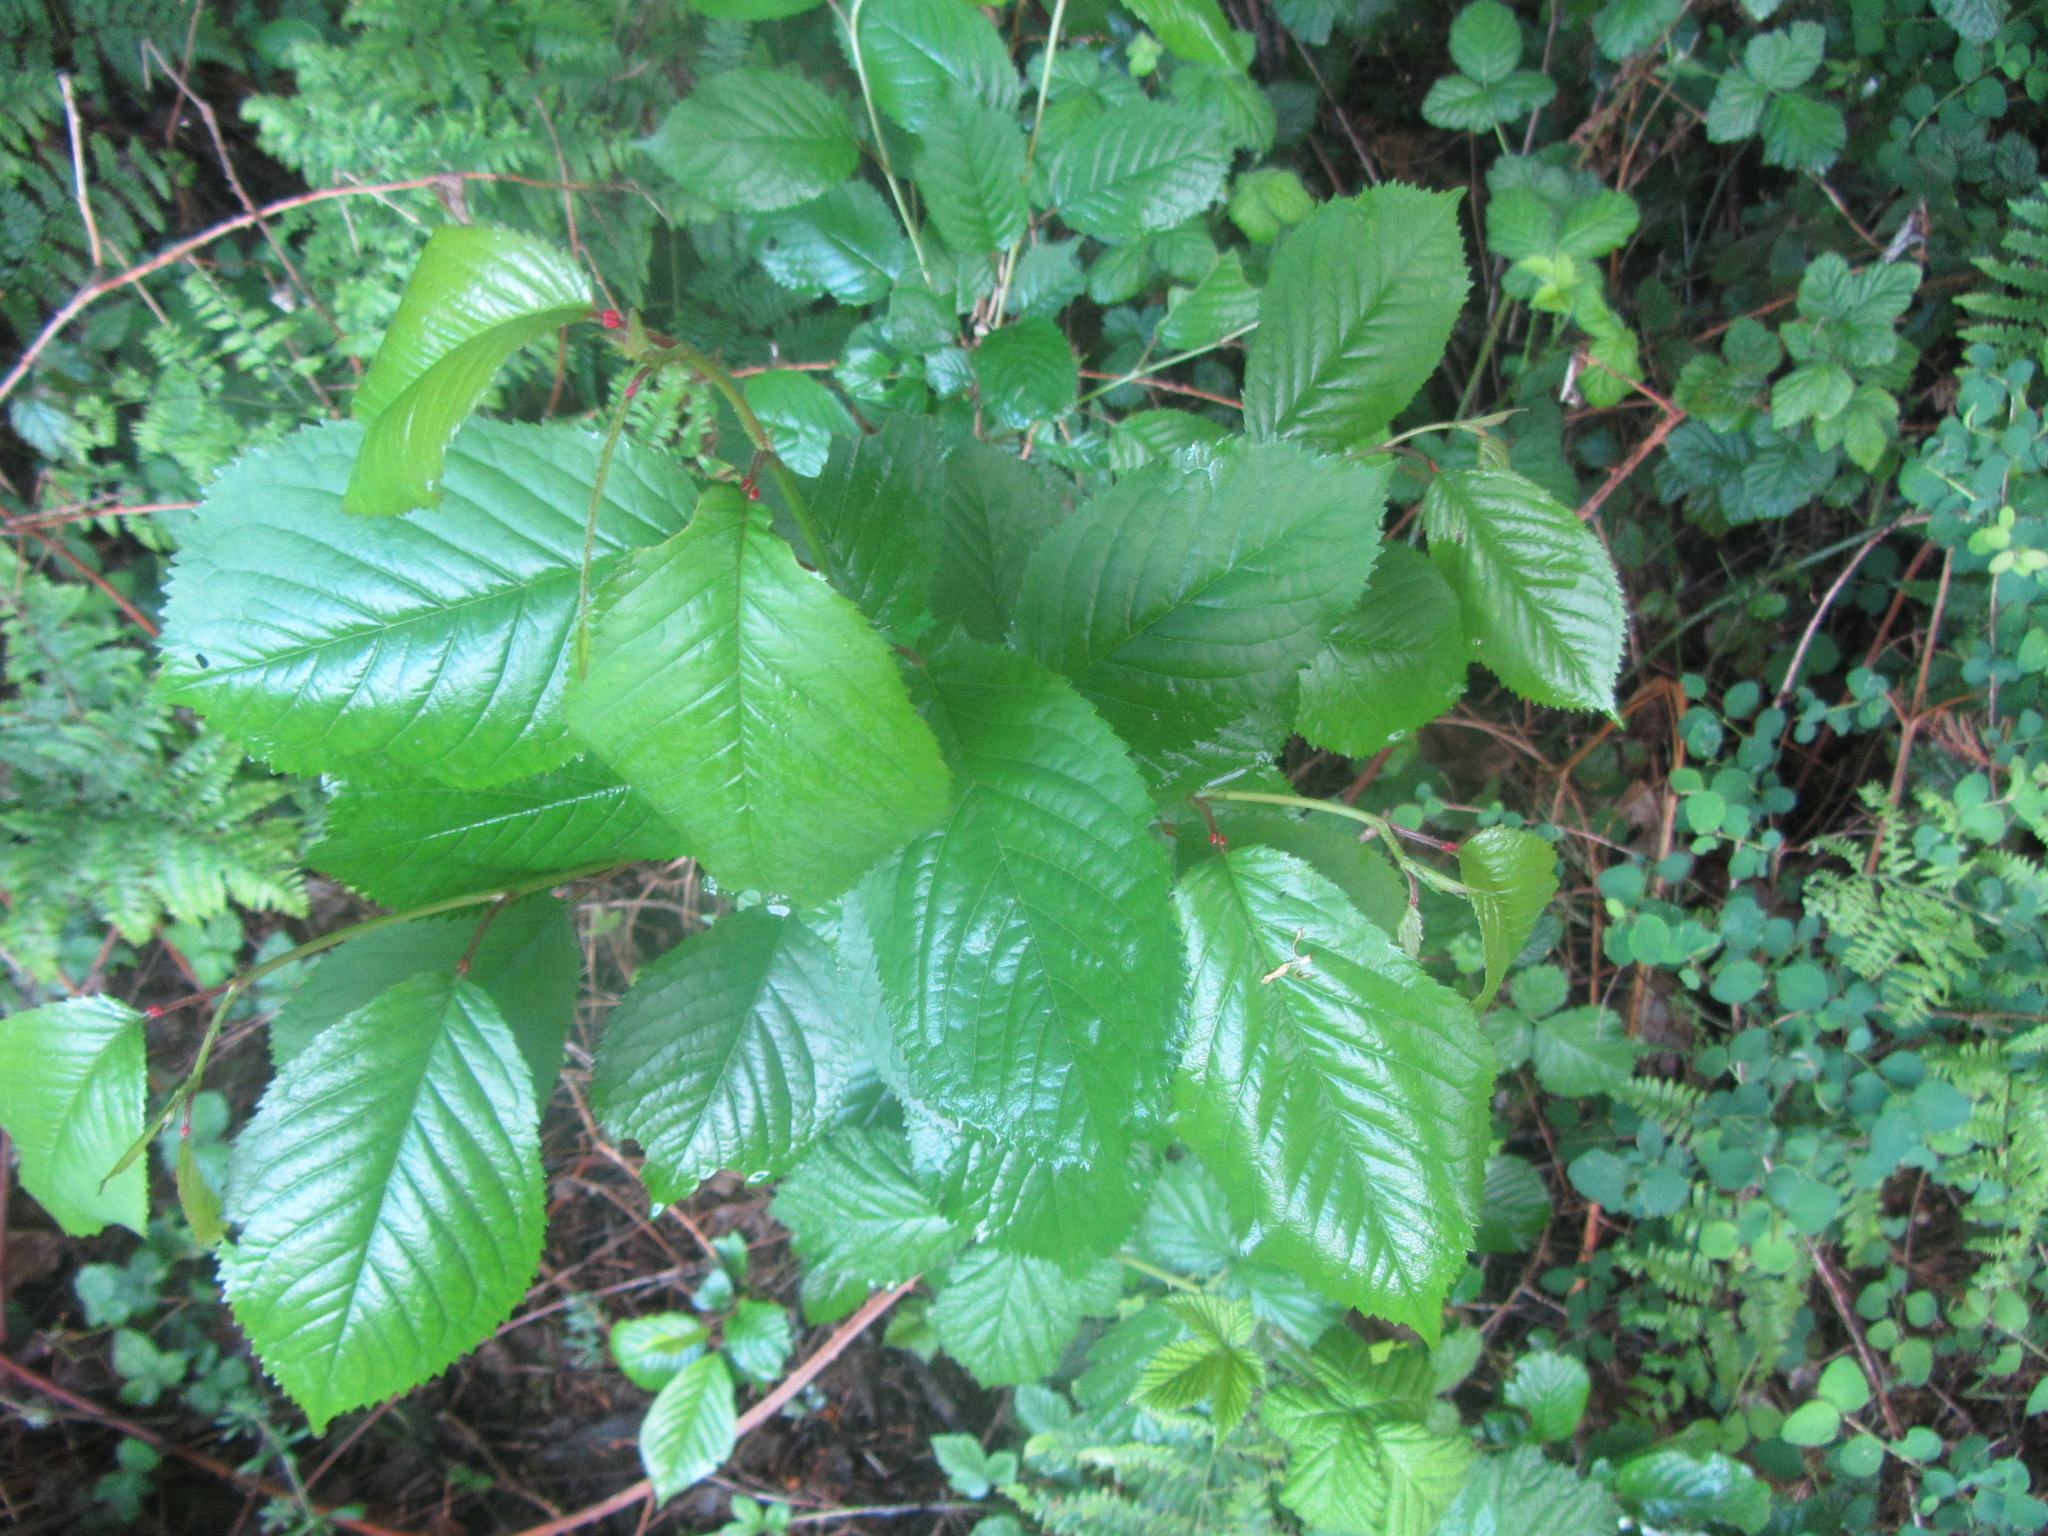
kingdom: Plantae
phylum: Tracheophyta
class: Magnoliopsida
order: Rosales
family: Rosaceae
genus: Prunus
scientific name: Prunus avium
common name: Sweet cherry
